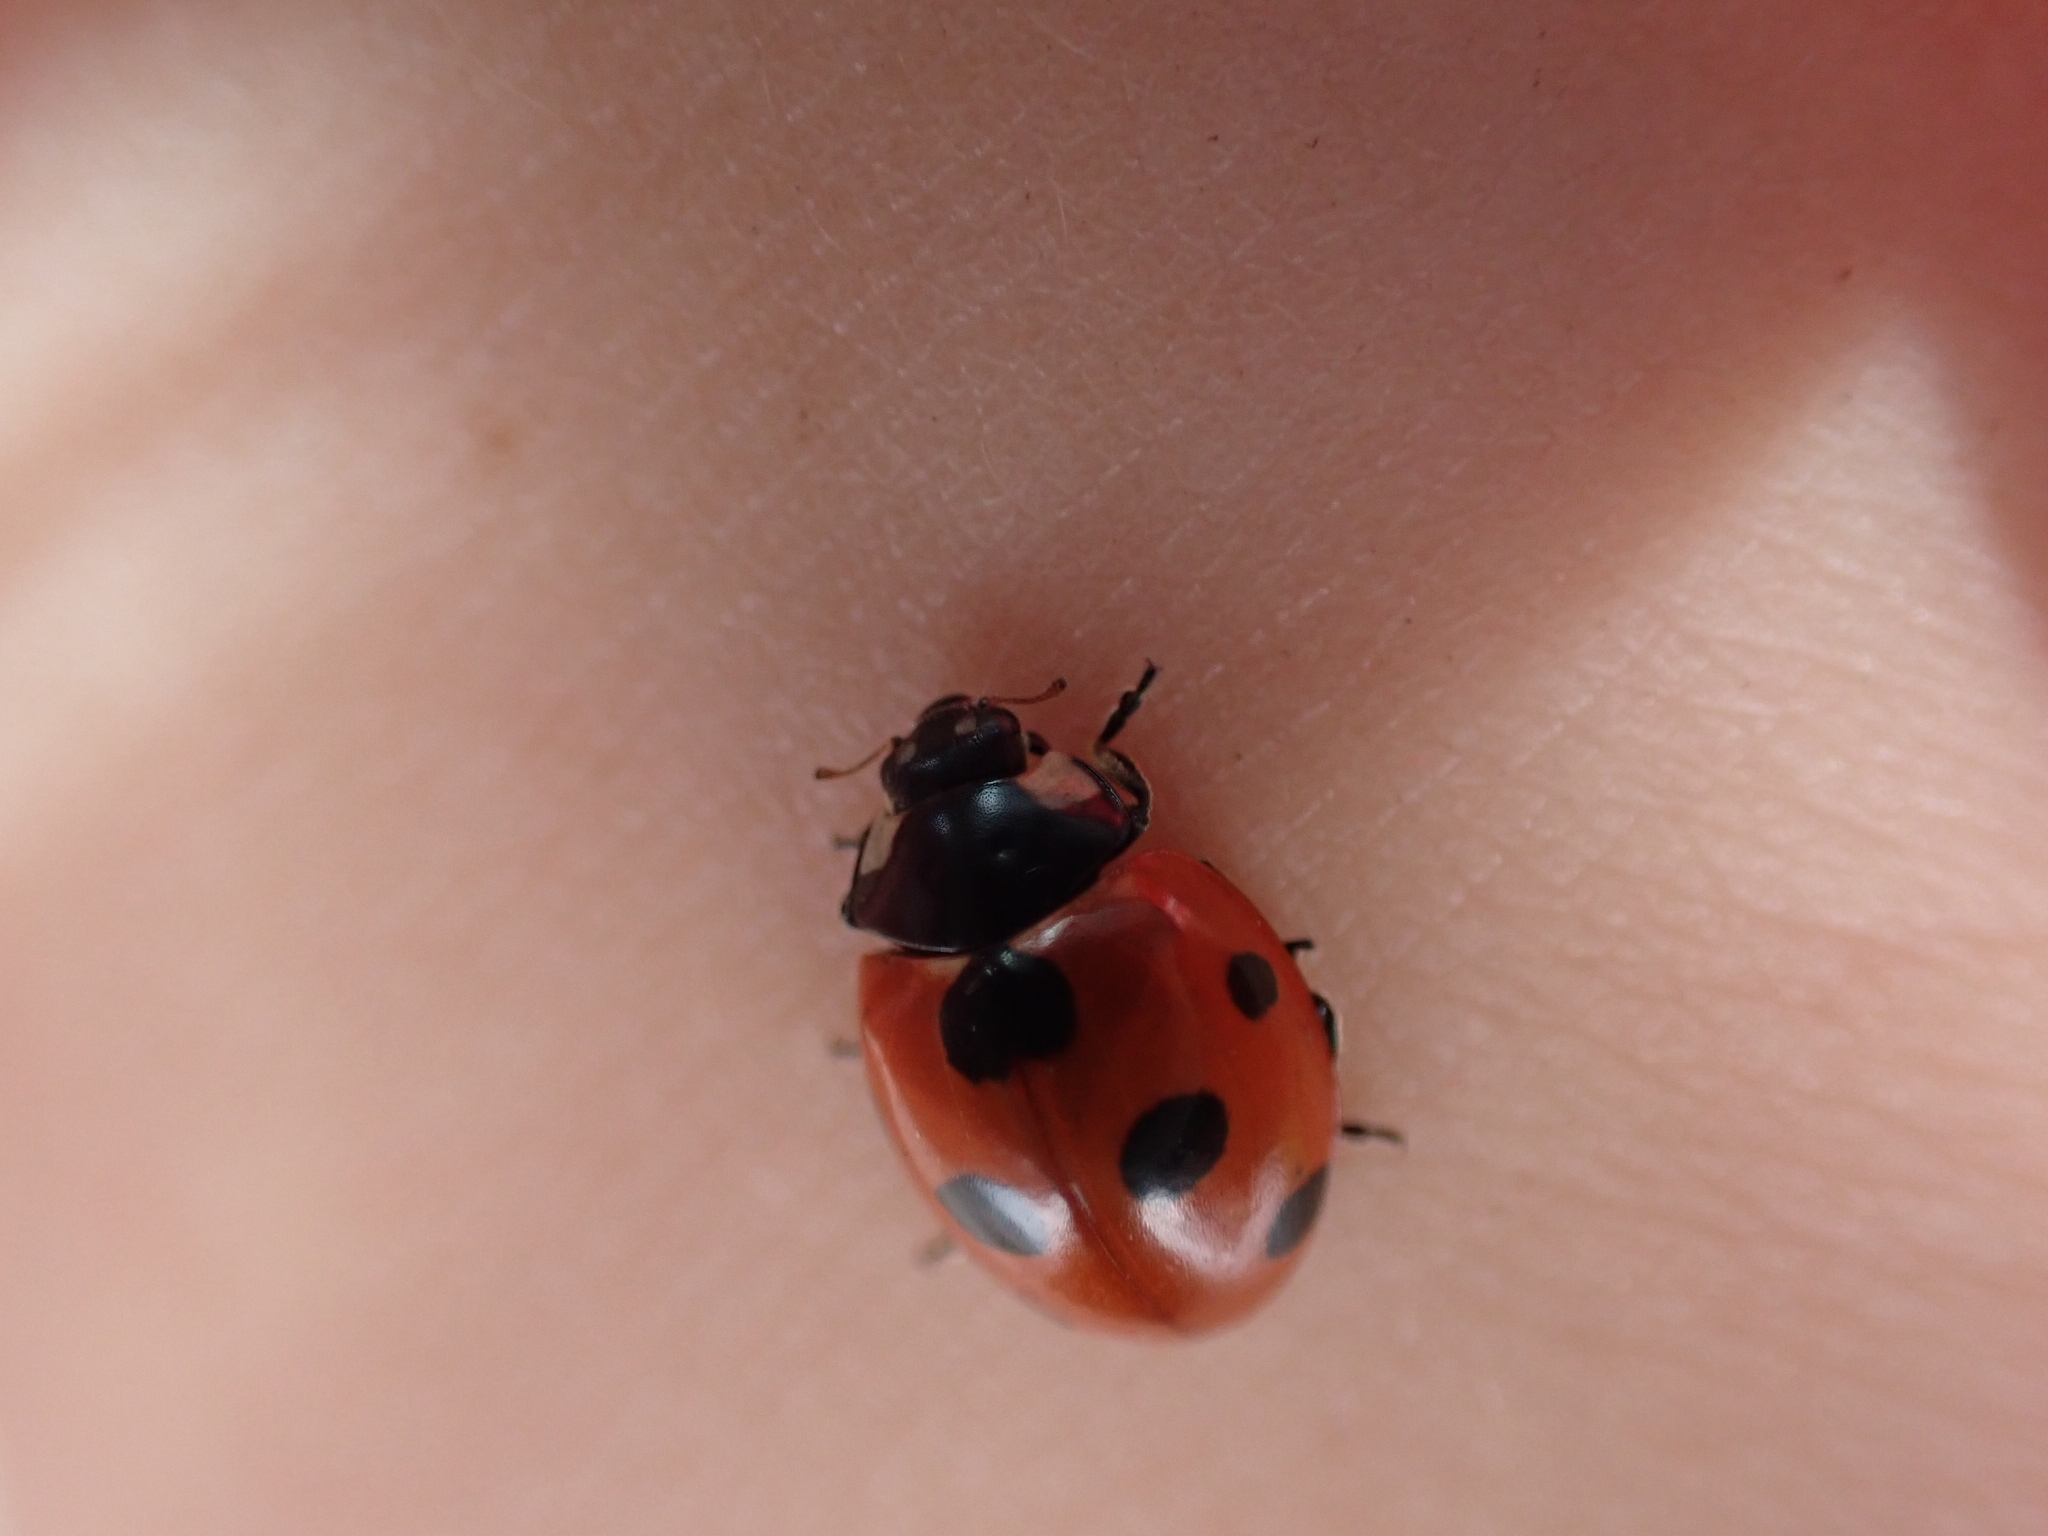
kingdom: Animalia
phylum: Arthropoda
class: Insecta
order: Coleoptera
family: Coccinellidae
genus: Coccinella
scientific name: Coccinella septempunctata
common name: Sevenspotted lady beetle
